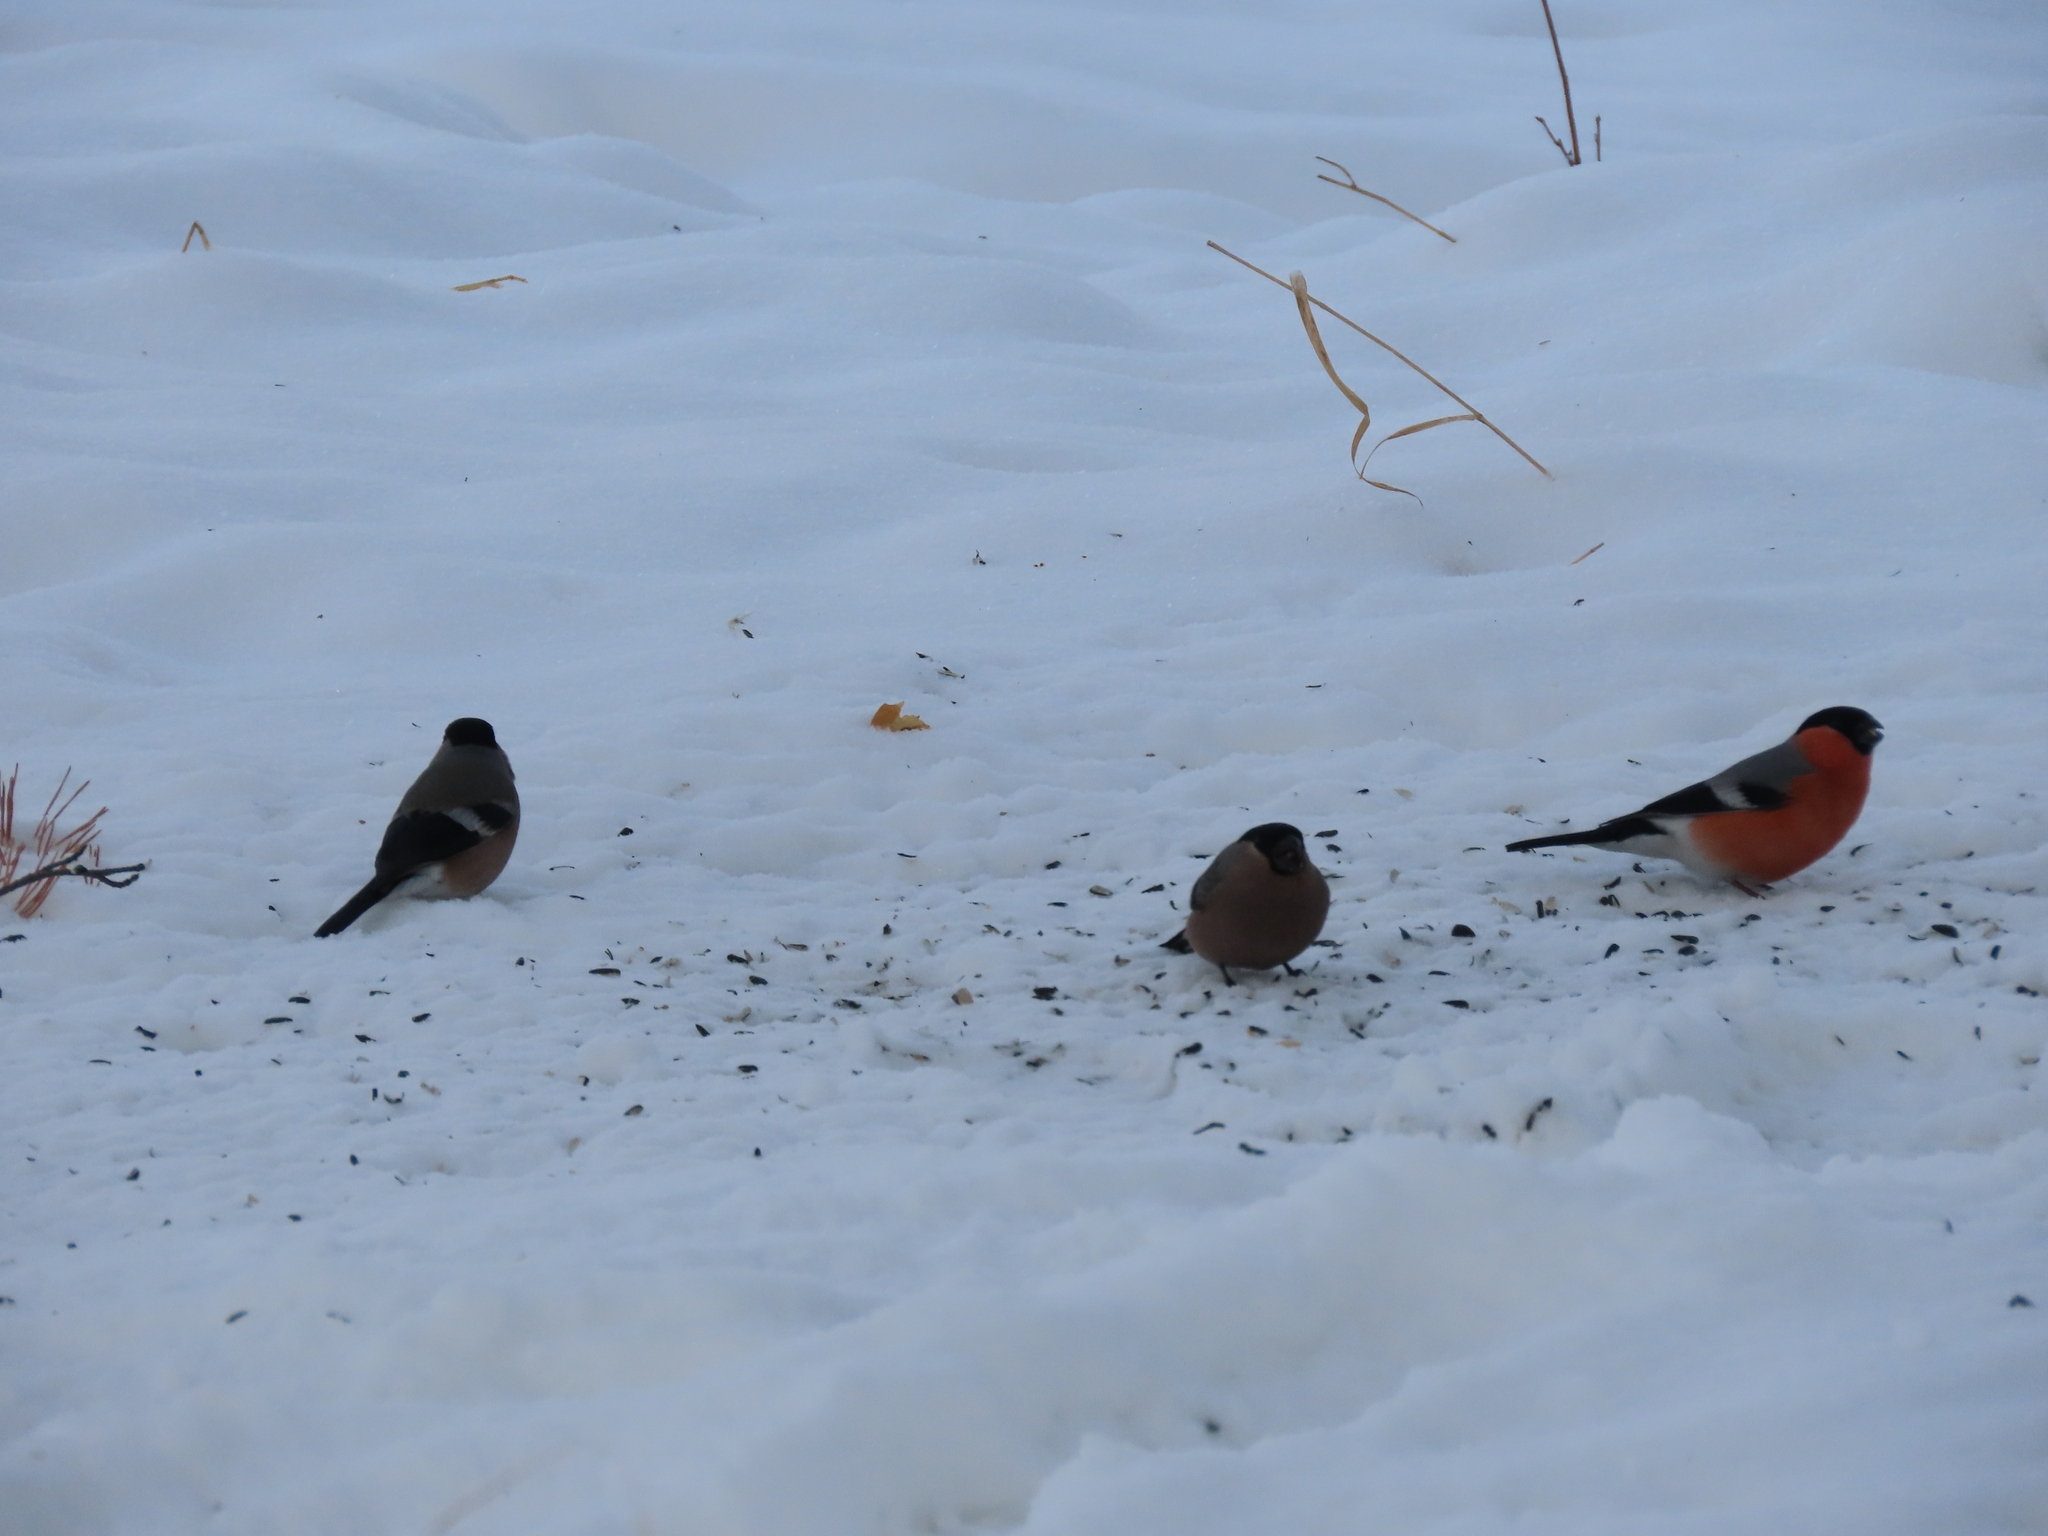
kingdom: Animalia
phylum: Chordata
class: Aves
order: Passeriformes
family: Fringillidae
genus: Pyrrhula
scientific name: Pyrrhula pyrrhula
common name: Eurasian bullfinch
